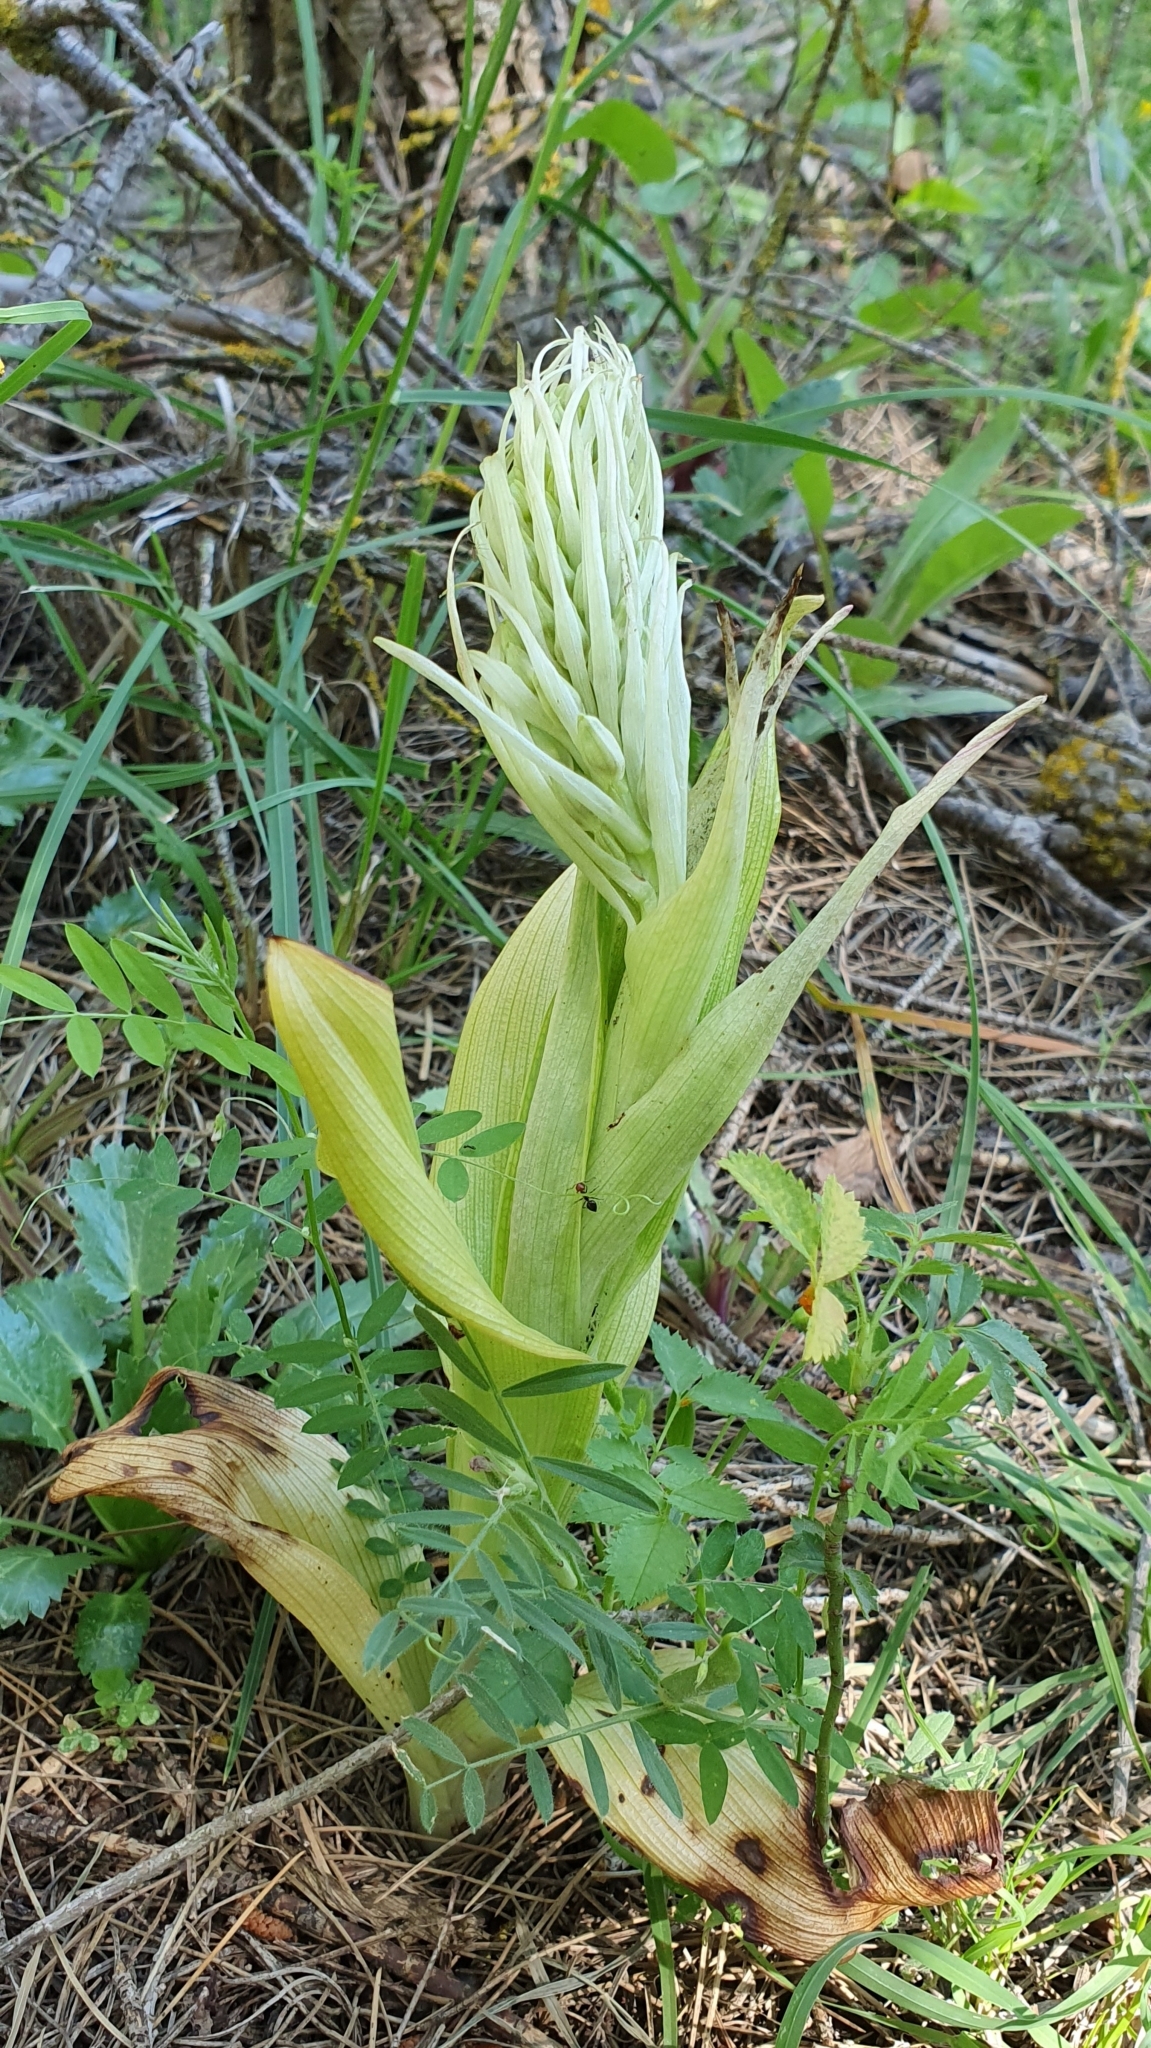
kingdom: Plantae
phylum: Tracheophyta
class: Liliopsida
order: Asparagales
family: Orchidaceae
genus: Himantoglossum
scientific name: Himantoglossum hircinum
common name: Lizard orchid
